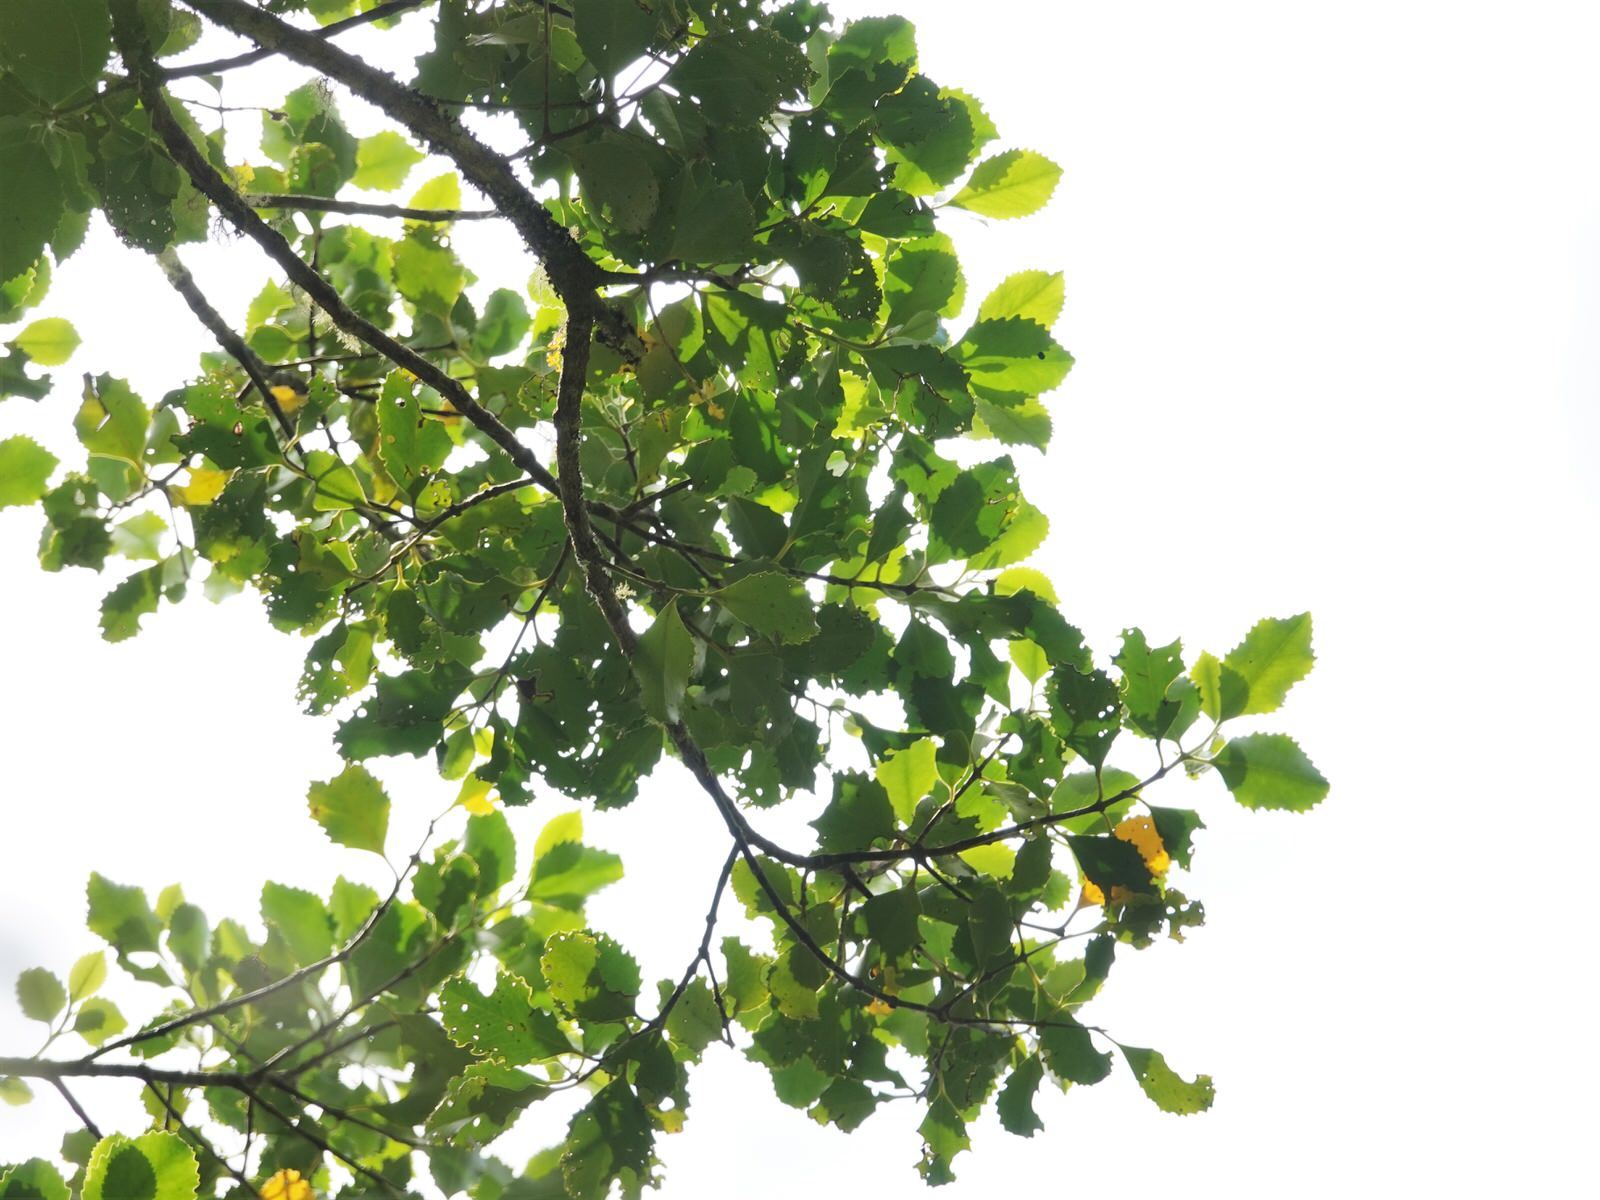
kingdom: Plantae
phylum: Tracheophyta
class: Magnoliopsida
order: Laurales
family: Atherospermataceae
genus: Laurelia
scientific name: Laurelia novae-zelandiae
